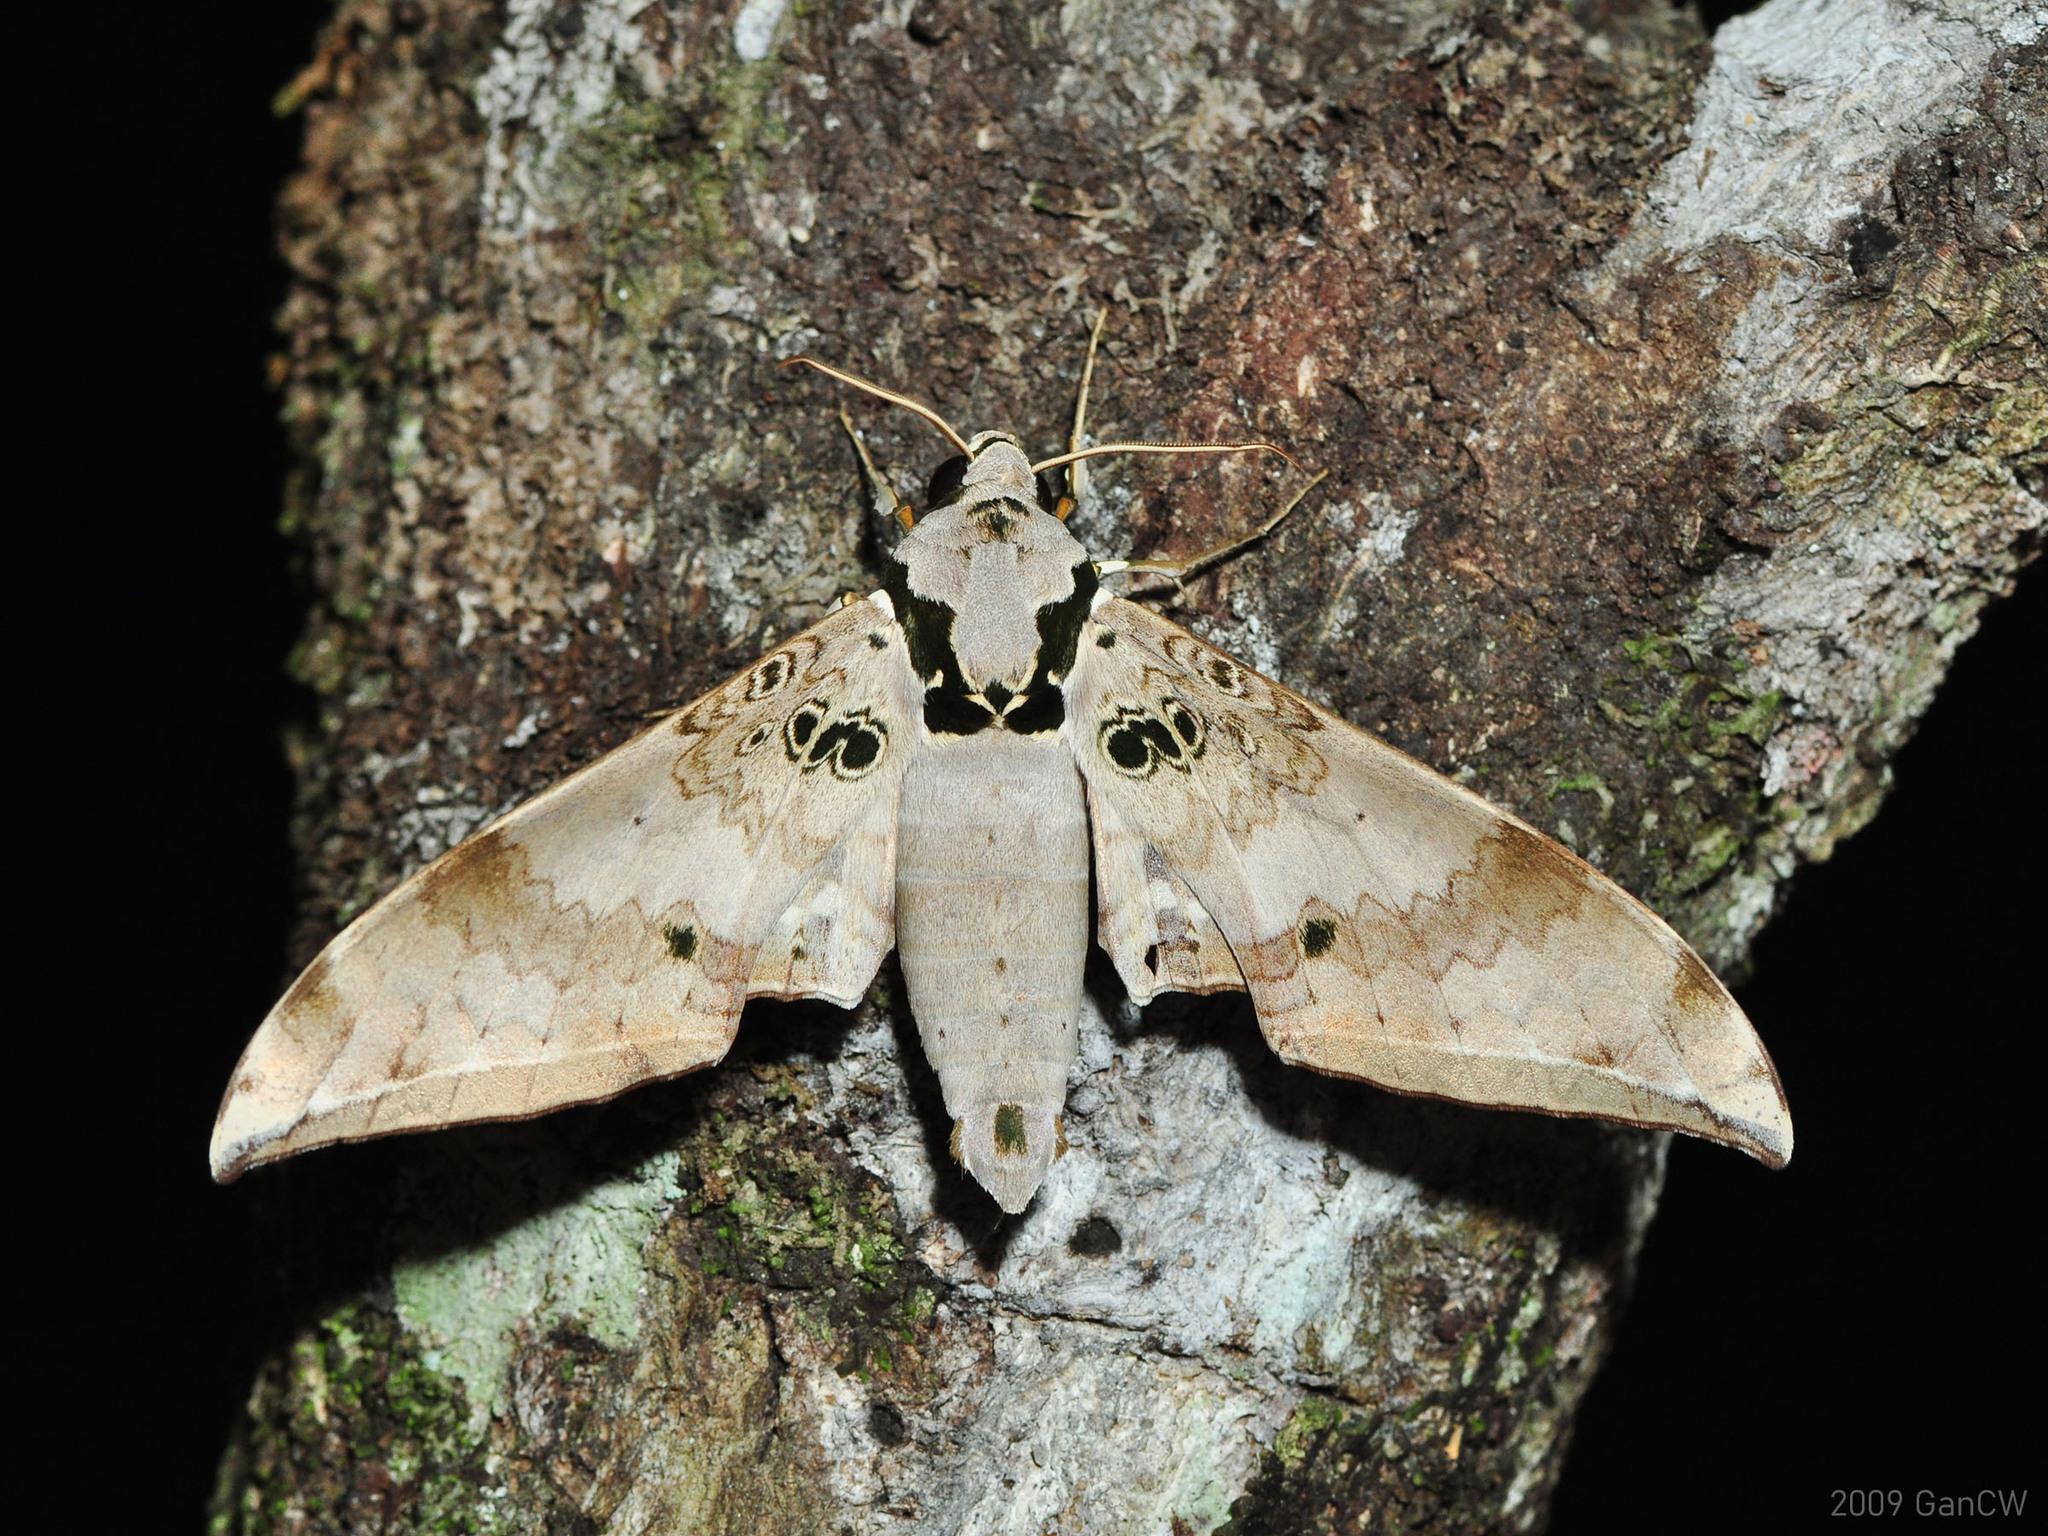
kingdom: Animalia
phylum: Arthropoda
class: Insecta
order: Lepidoptera
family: Sphingidae
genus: Ambulyx
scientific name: Ambulyx canescens
